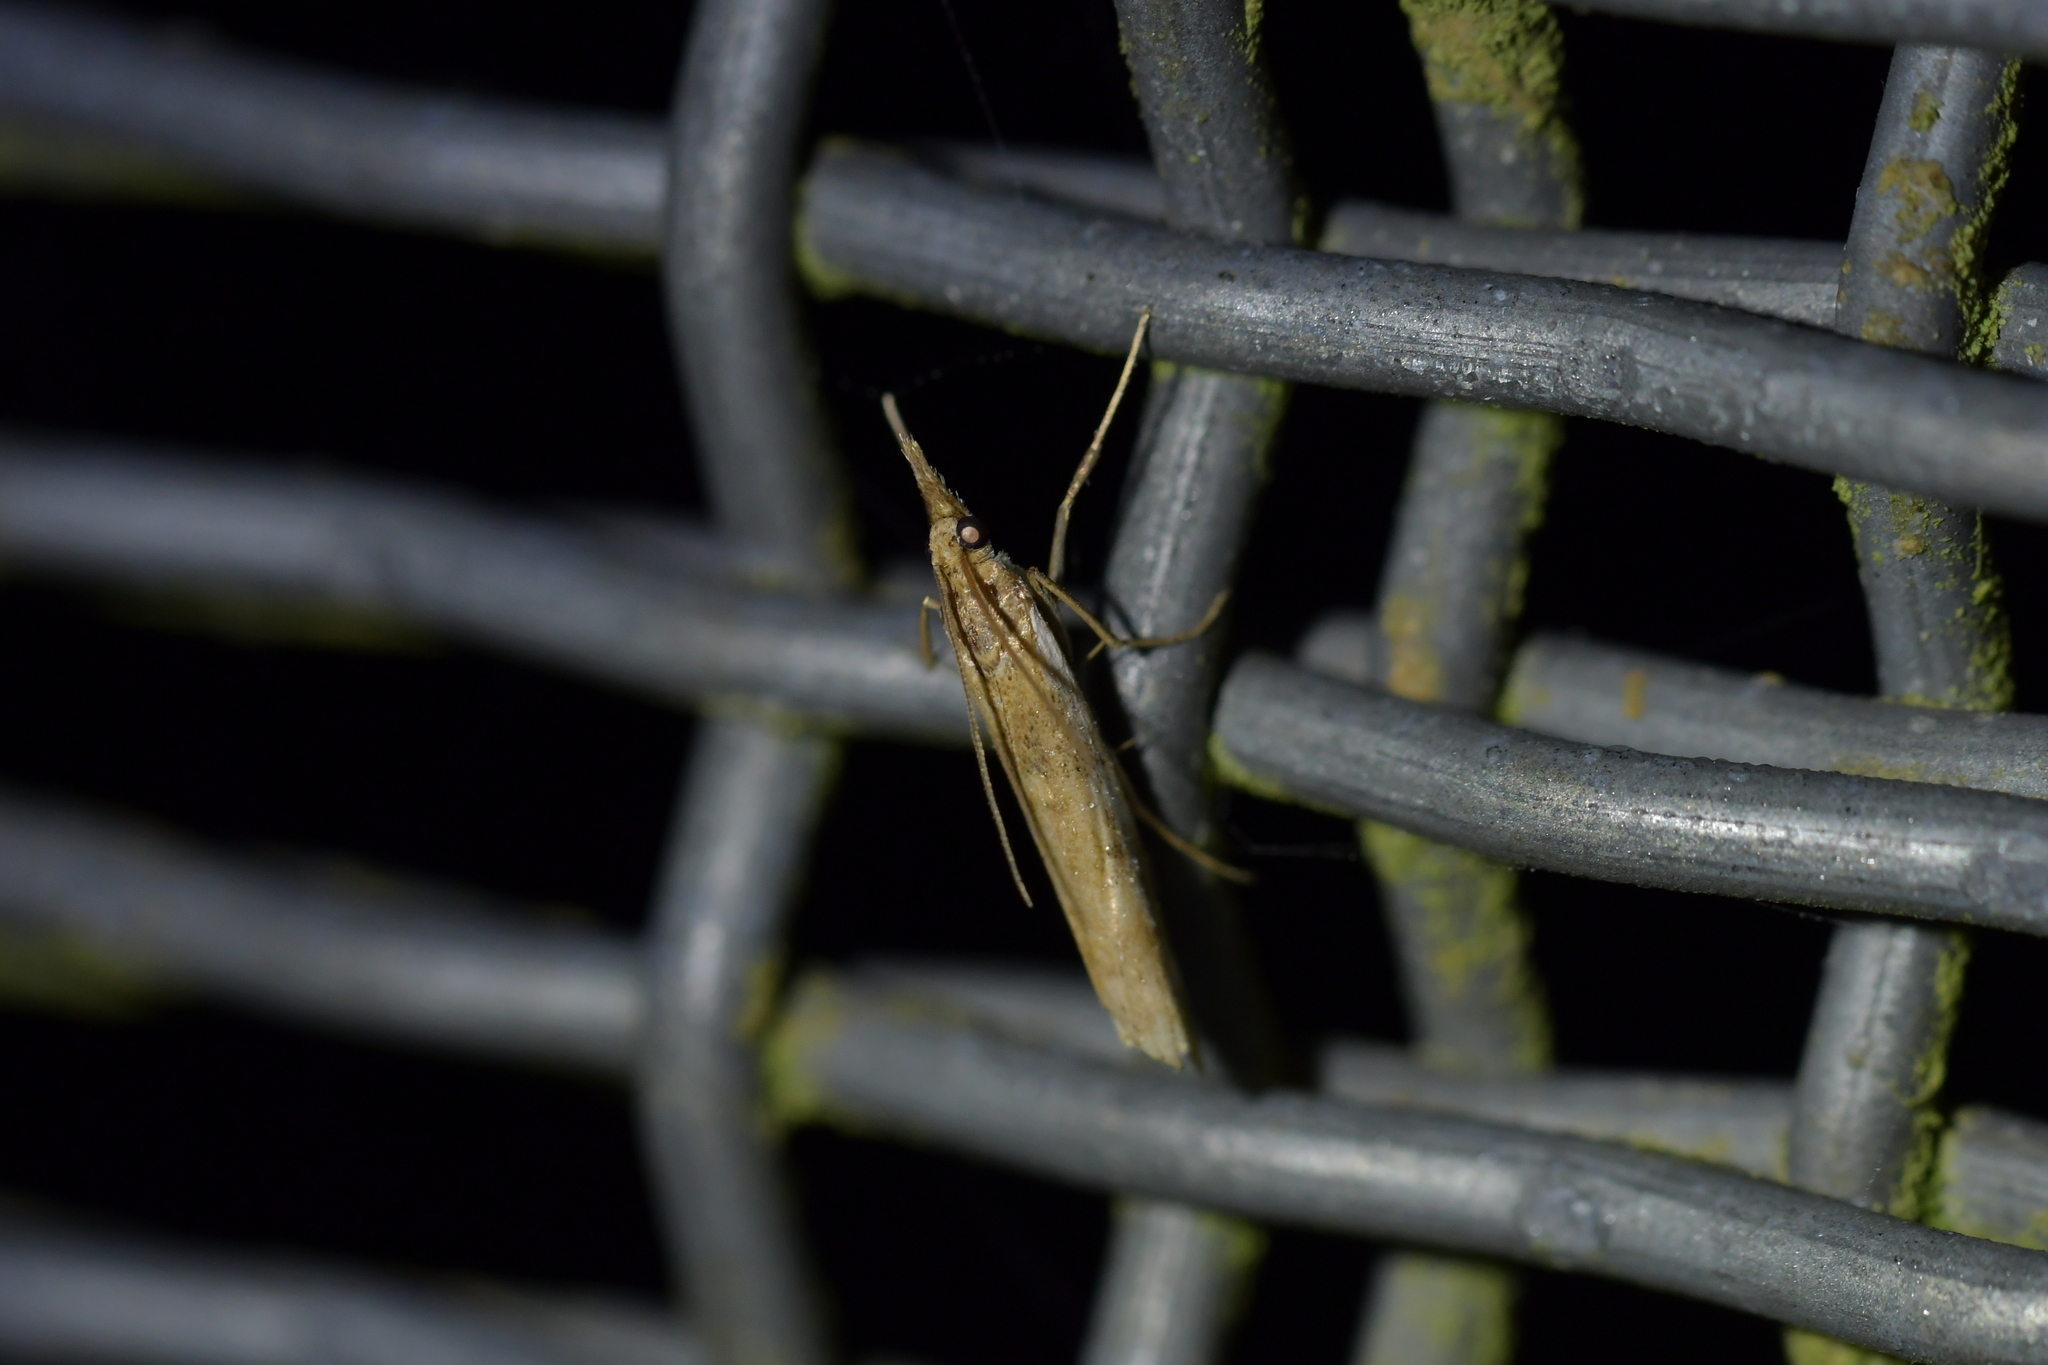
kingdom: Animalia
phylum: Arthropoda
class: Insecta
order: Lepidoptera
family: Crambidae
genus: Orocrambus
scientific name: Orocrambus vulgaris
